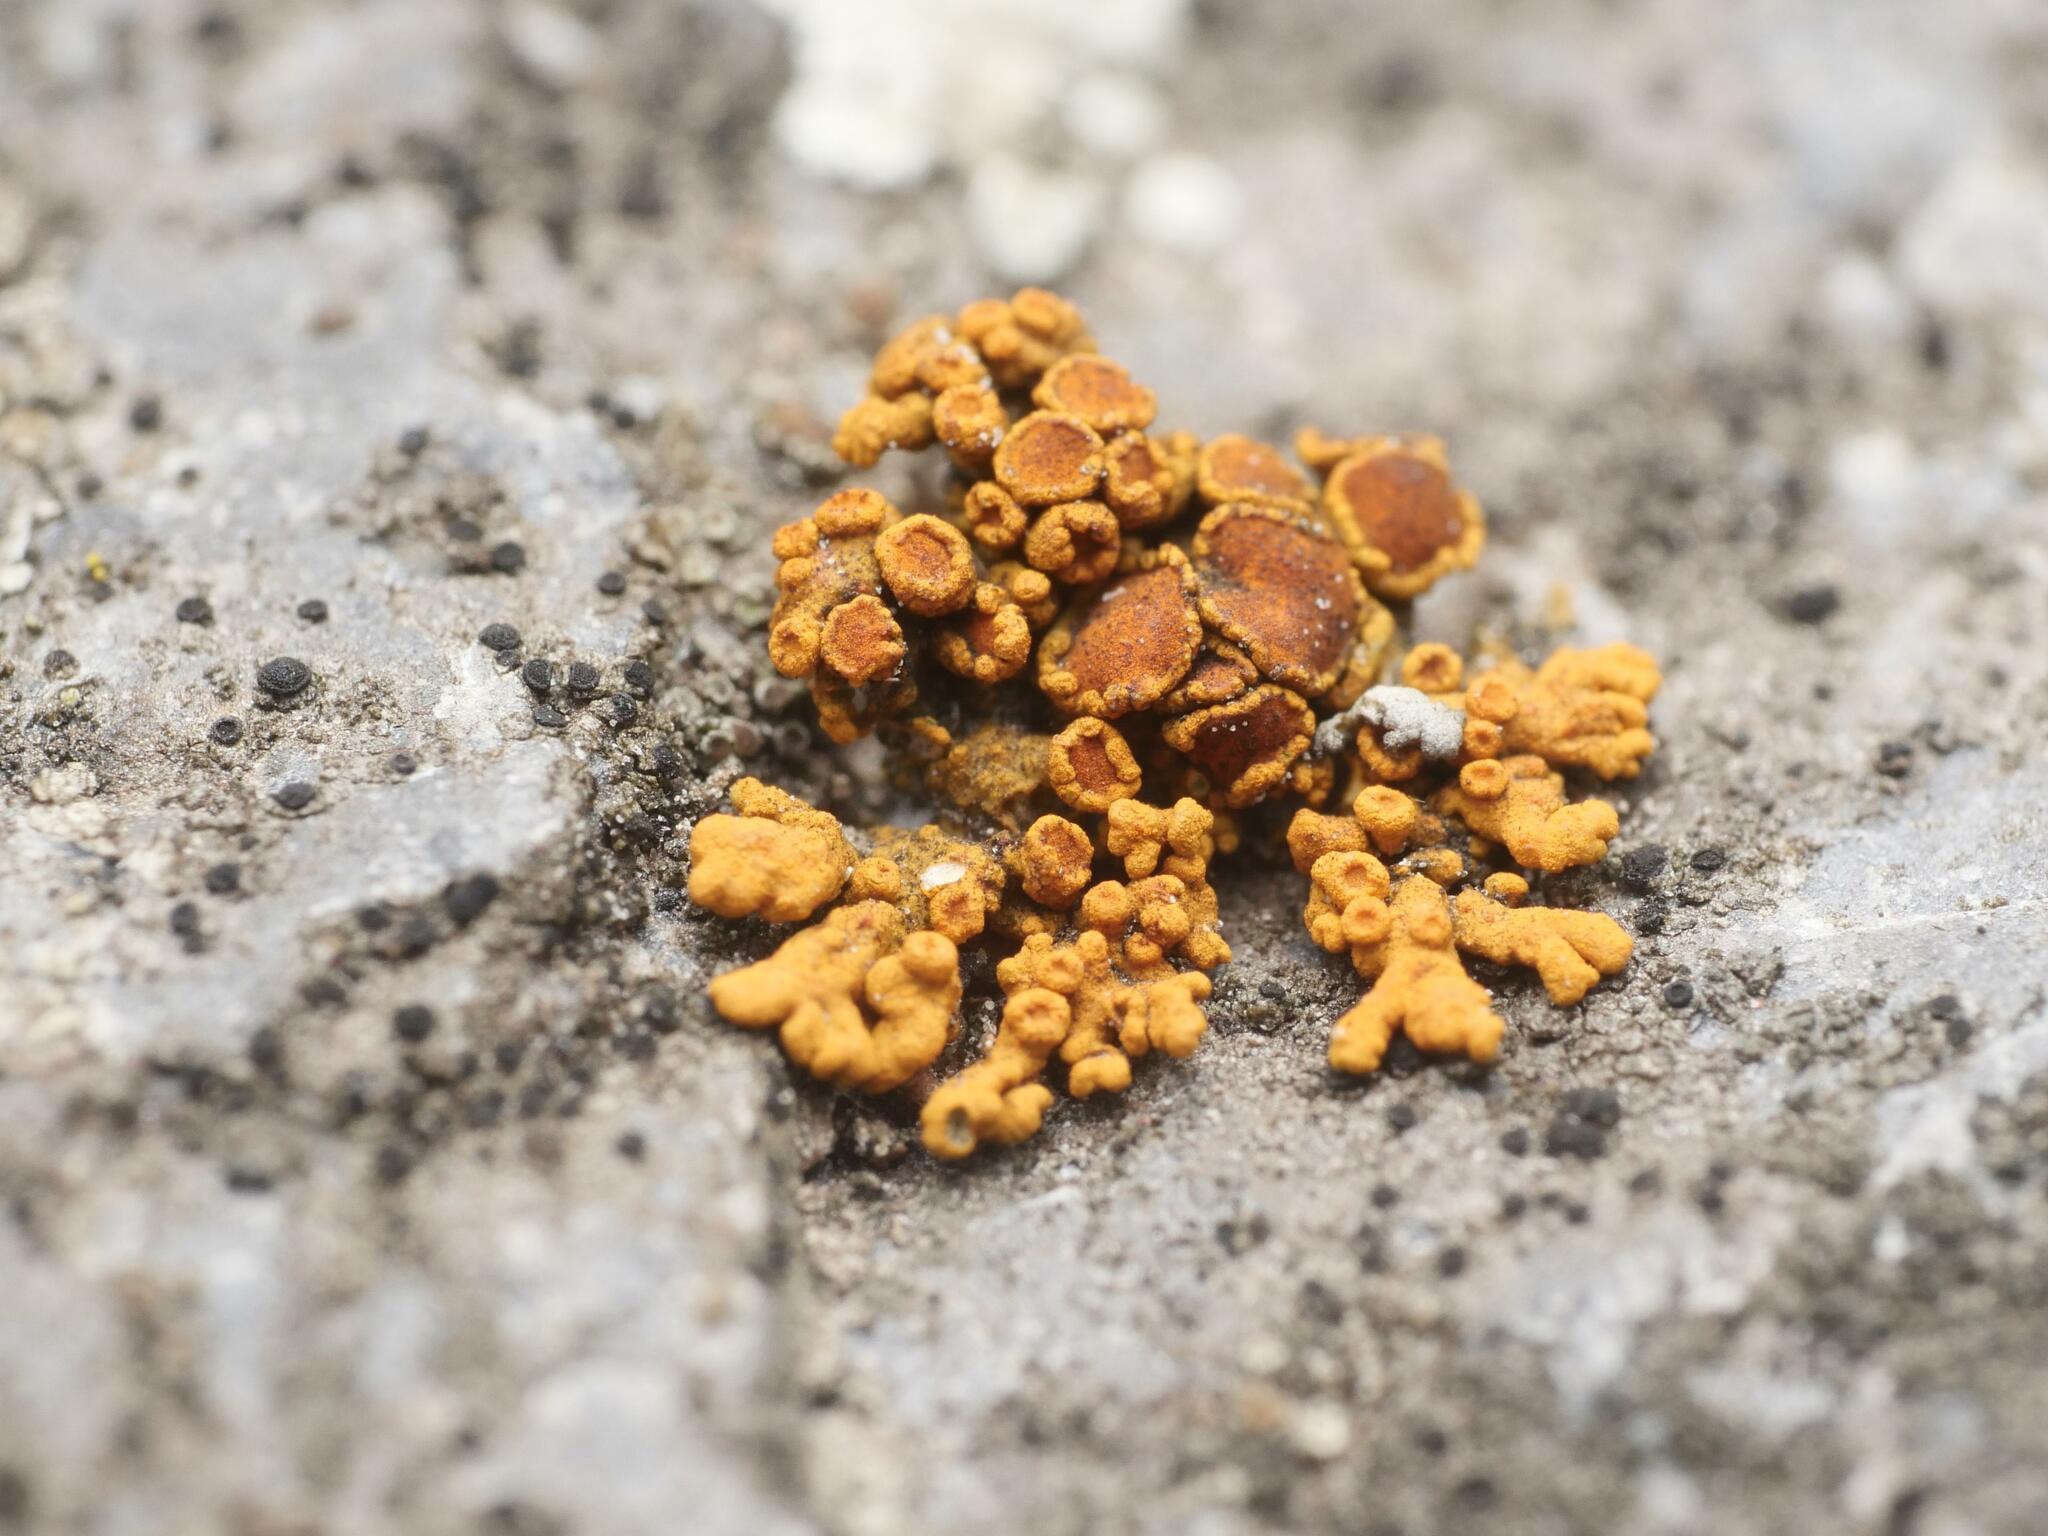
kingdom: Fungi
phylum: Ascomycota
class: Lecanoromycetes
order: Teloschistales
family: Teloschistaceae
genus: Xanthoria
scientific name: Xanthoria elegans
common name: Elegant sunburst lichen
